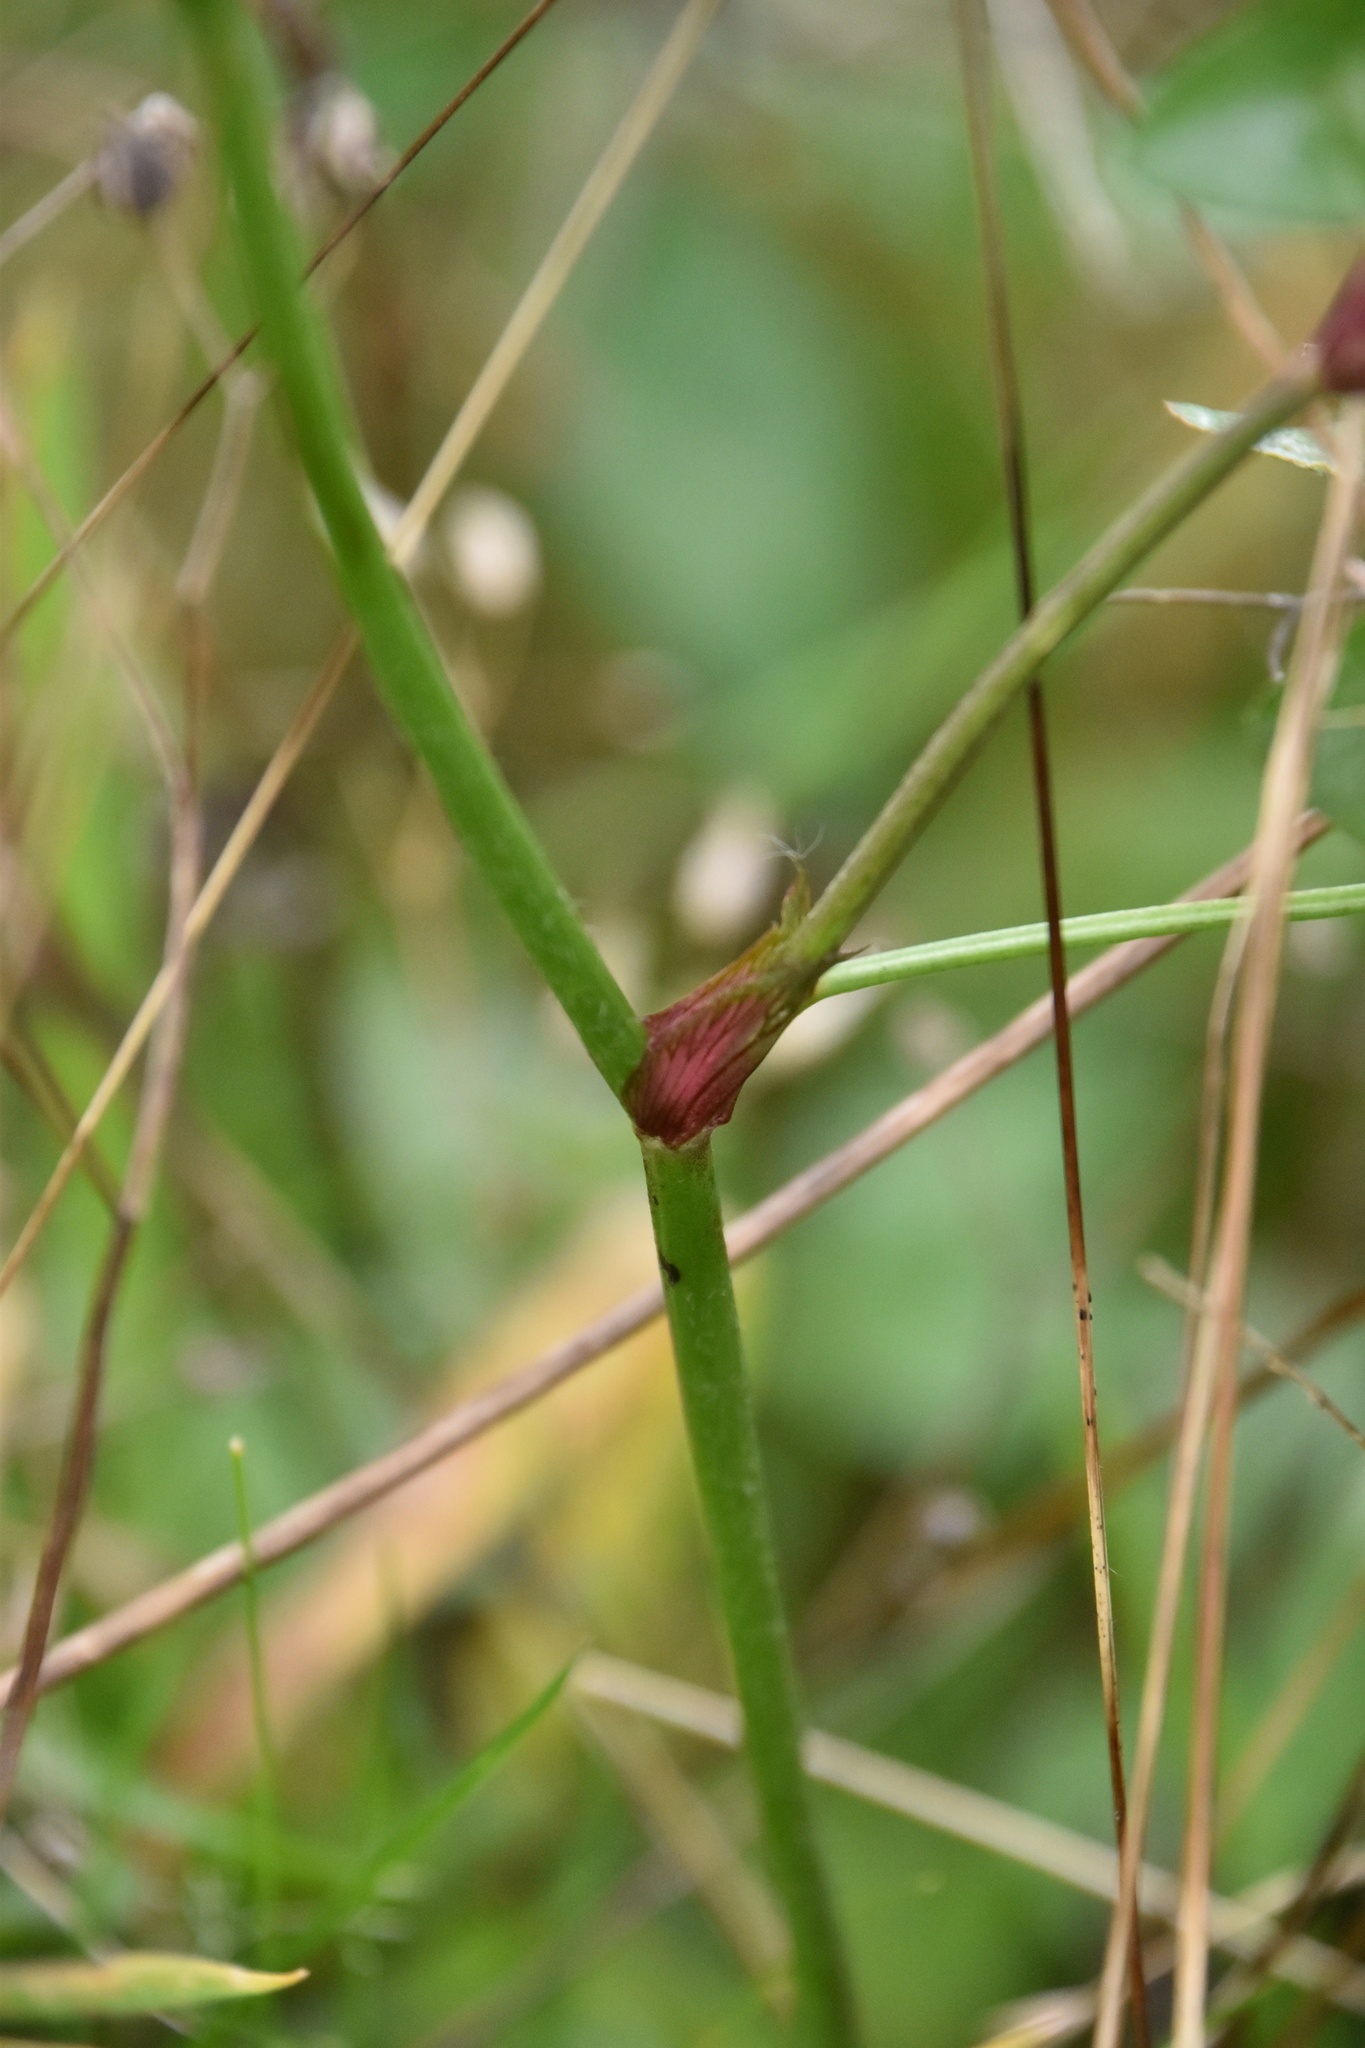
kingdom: Plantae
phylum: Tracheophyta
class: Magnoliopsida
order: Fabales
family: Fabaceae
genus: Trifolium
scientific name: Trifolium pratense
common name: Red clover
